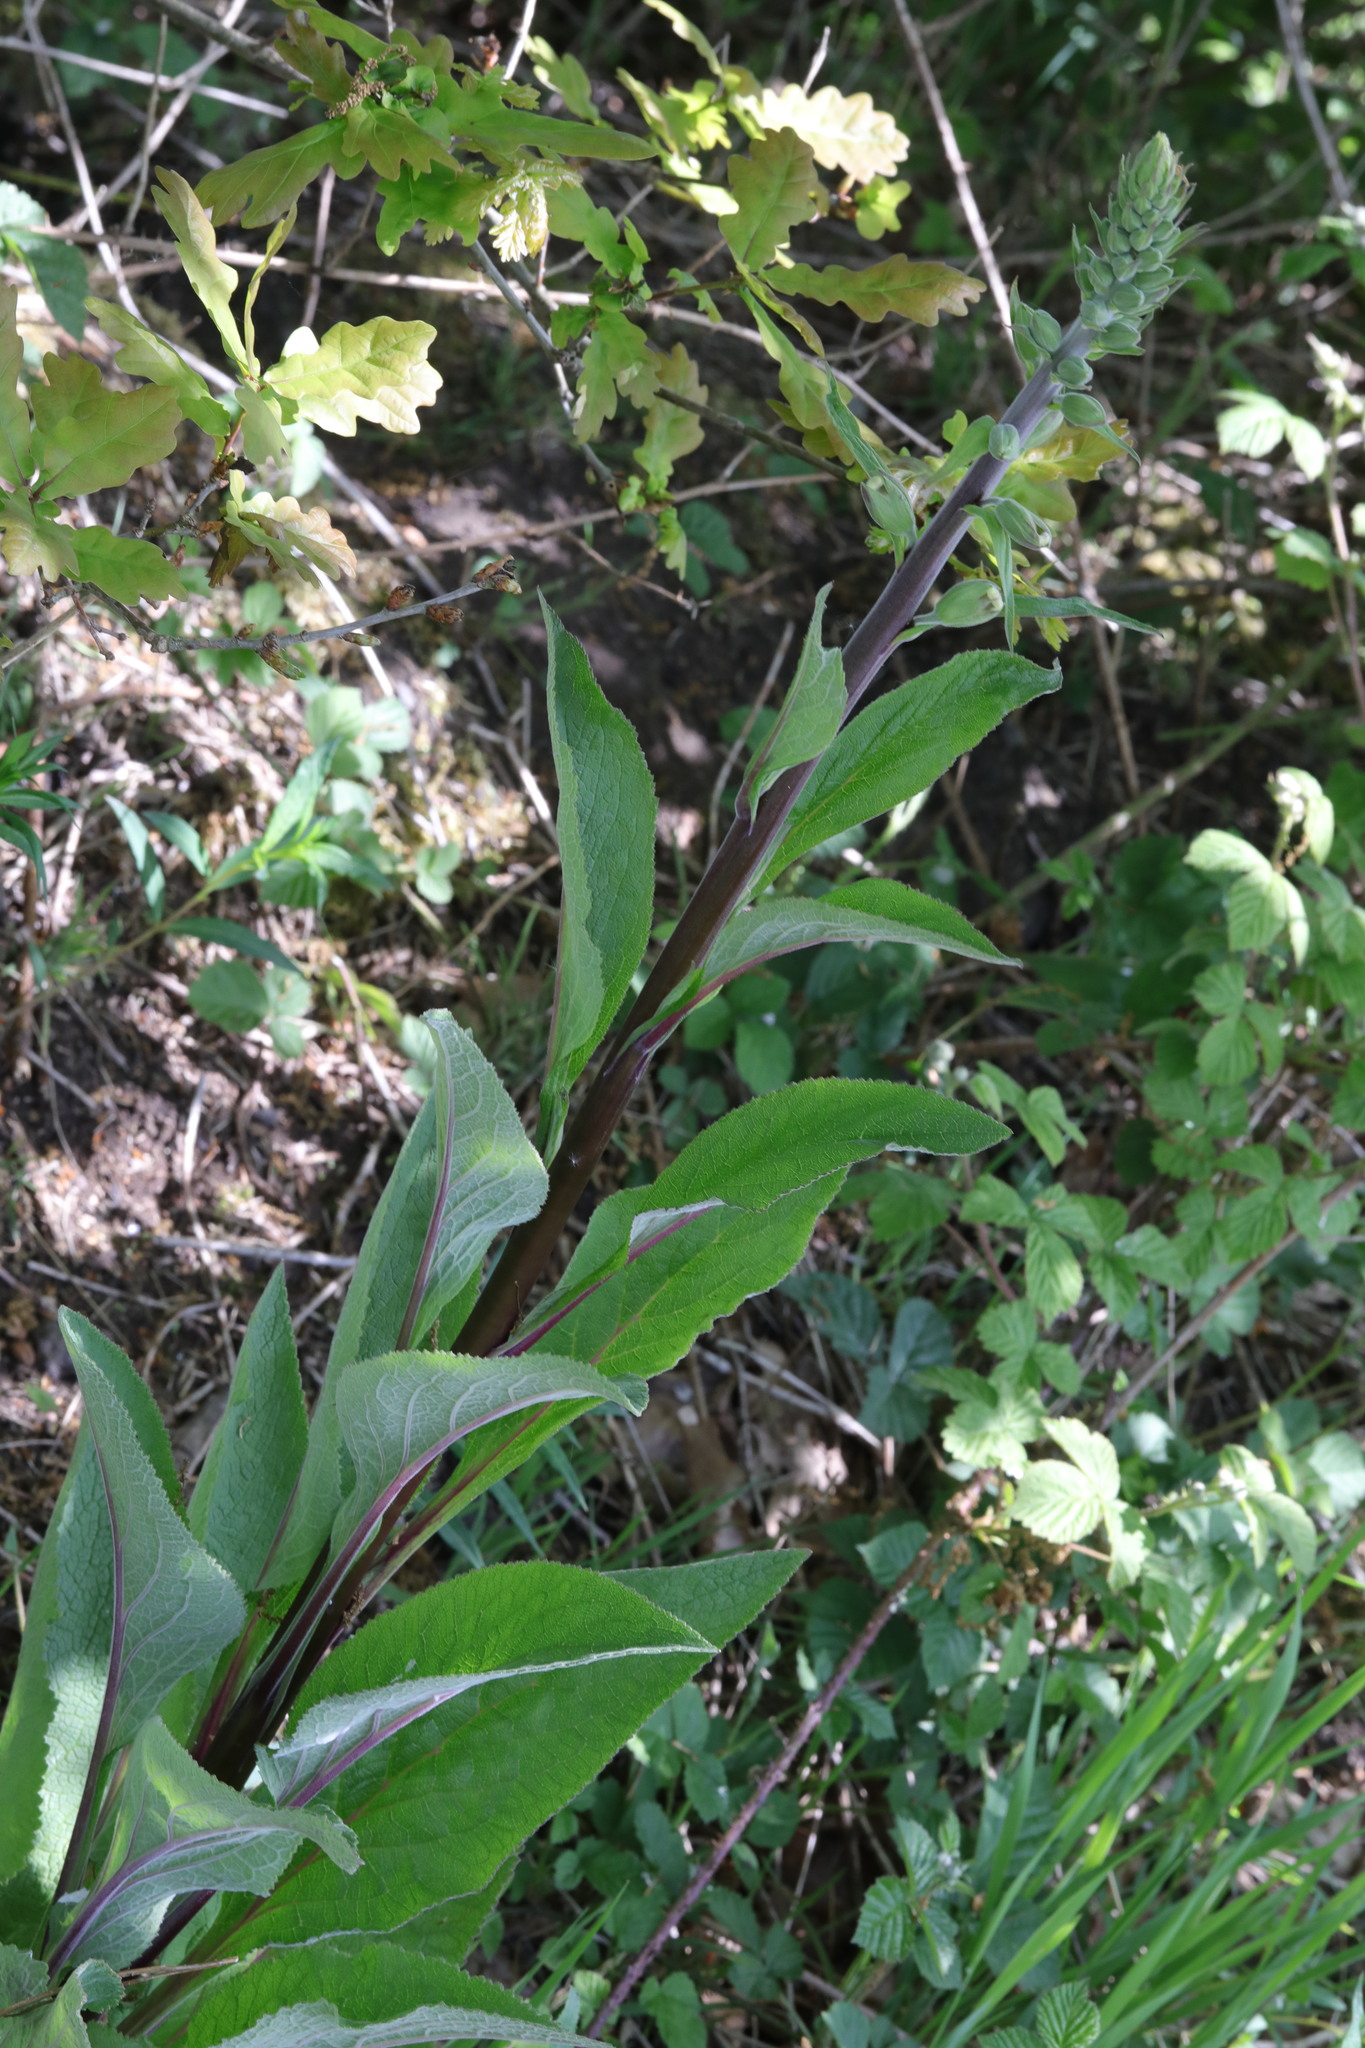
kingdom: Plantae
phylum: Tracheophyta
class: Magnoliopsida
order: Lamiales
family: Plantaginaceae
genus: Digitalis
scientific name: Digitalis purpurea
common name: Foxglove
